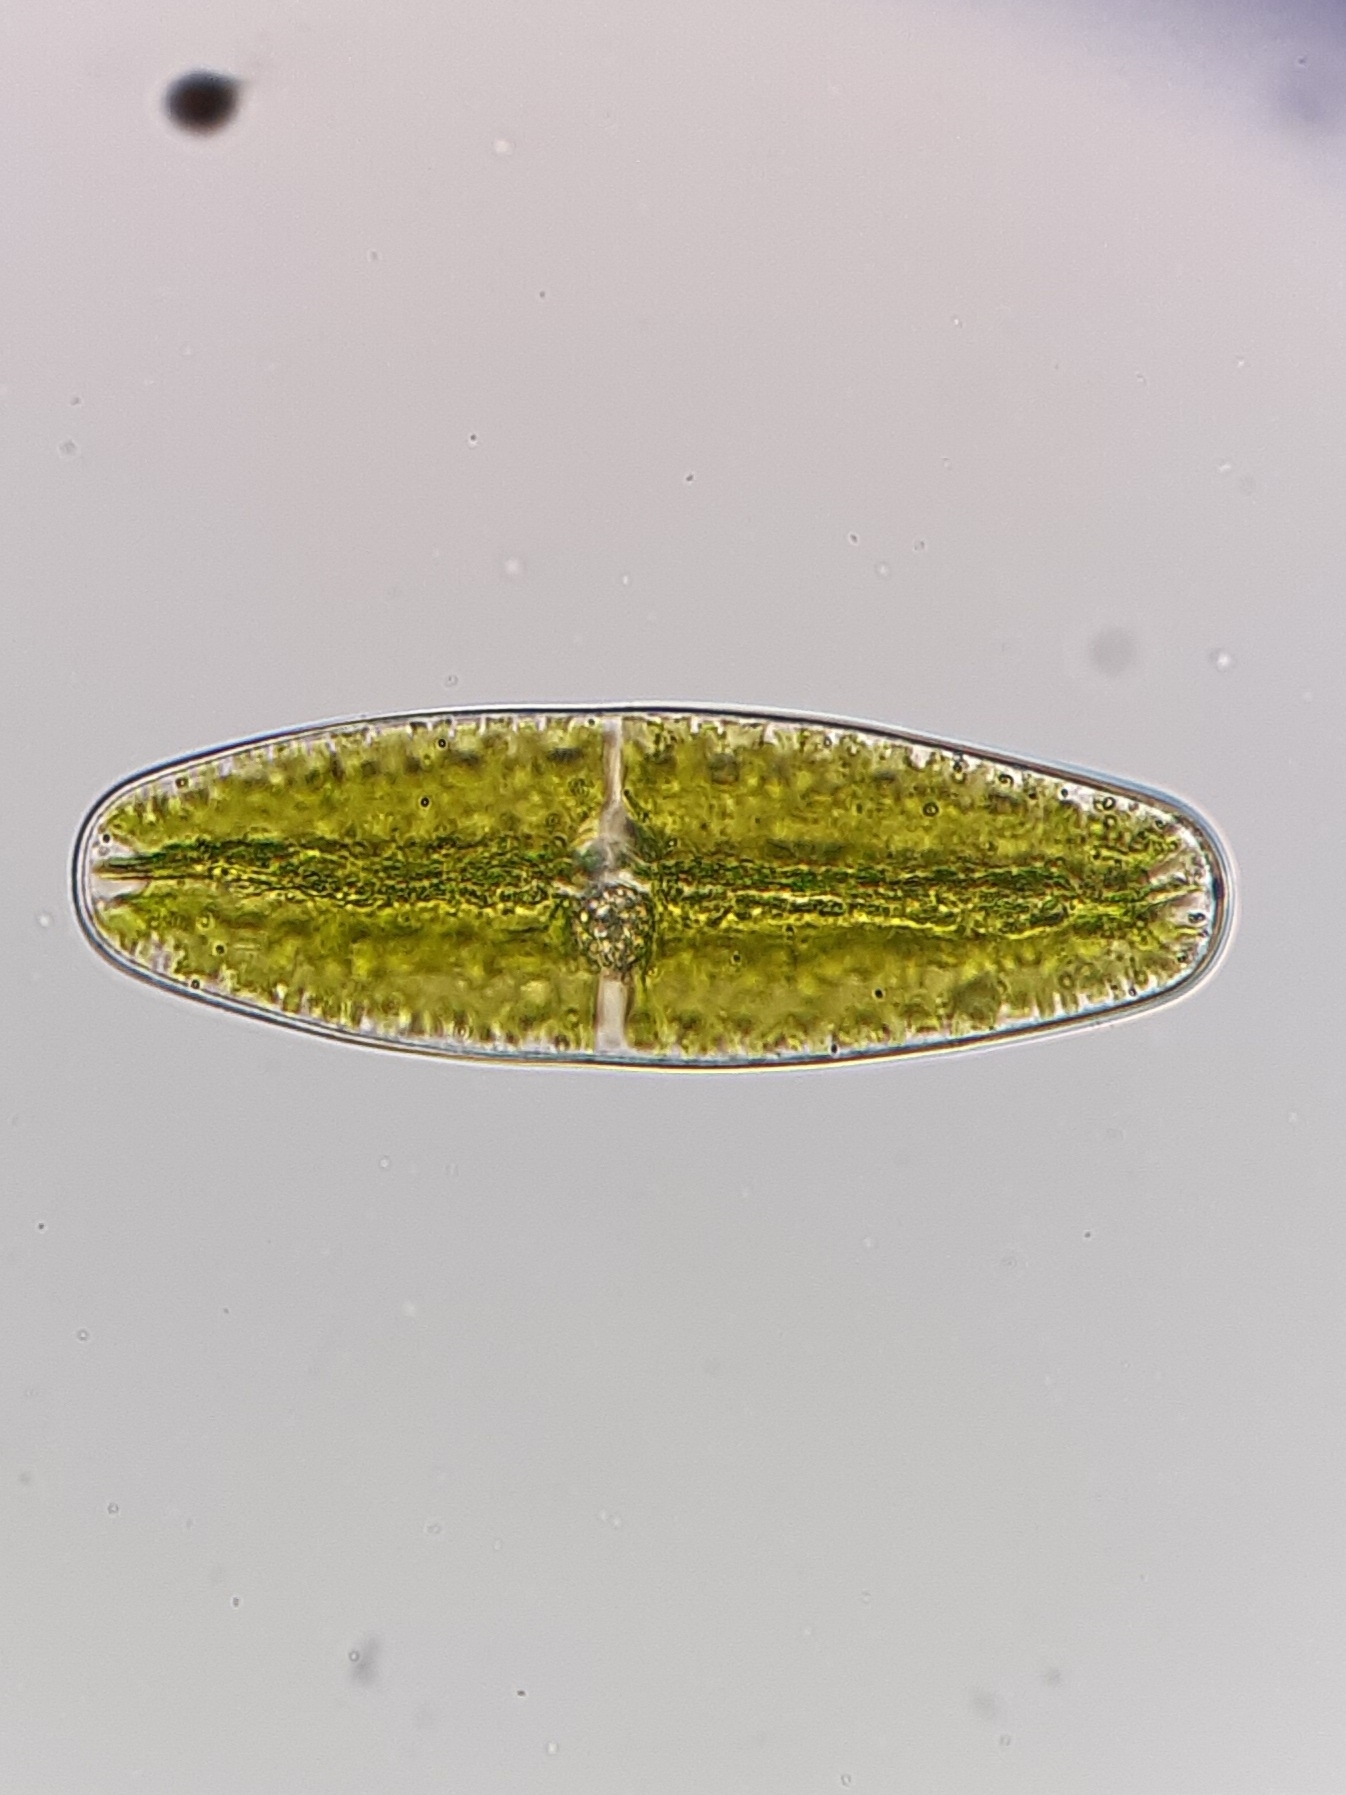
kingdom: Plantae
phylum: Charophyta
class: Zygnematophyceae
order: Zygnematales
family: Mesotaeniaceae
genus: Netrium
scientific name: Netrium digitus
